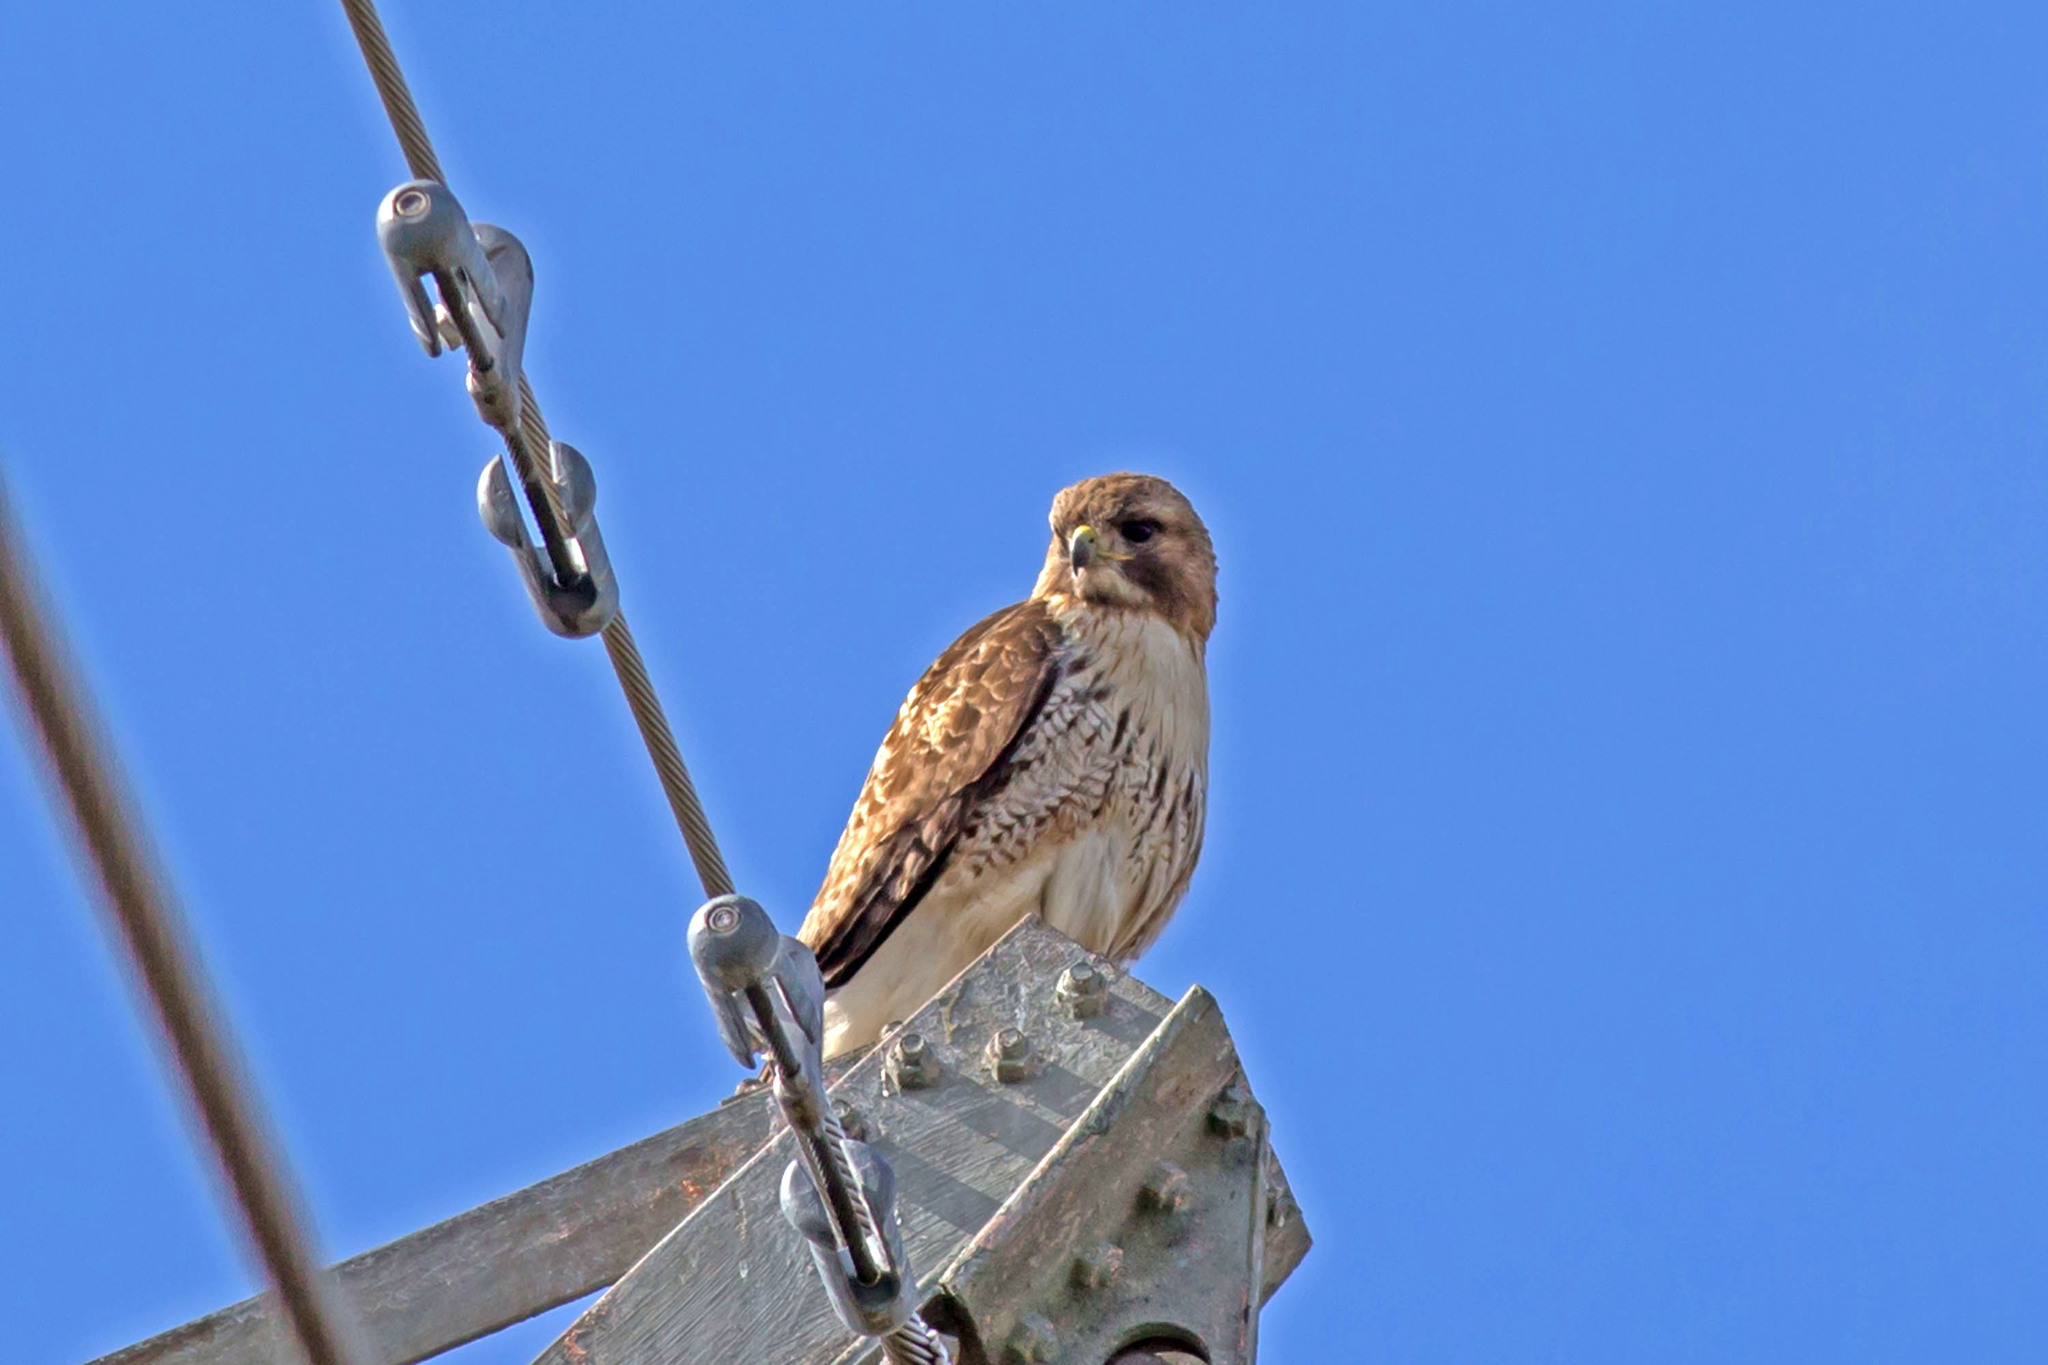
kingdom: Animalia
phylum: Chordata
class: Aves
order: Accipitriformes
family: Accipitridae
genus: Buteo
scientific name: Buteo jamaicensis
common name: Red-tailed hawk
